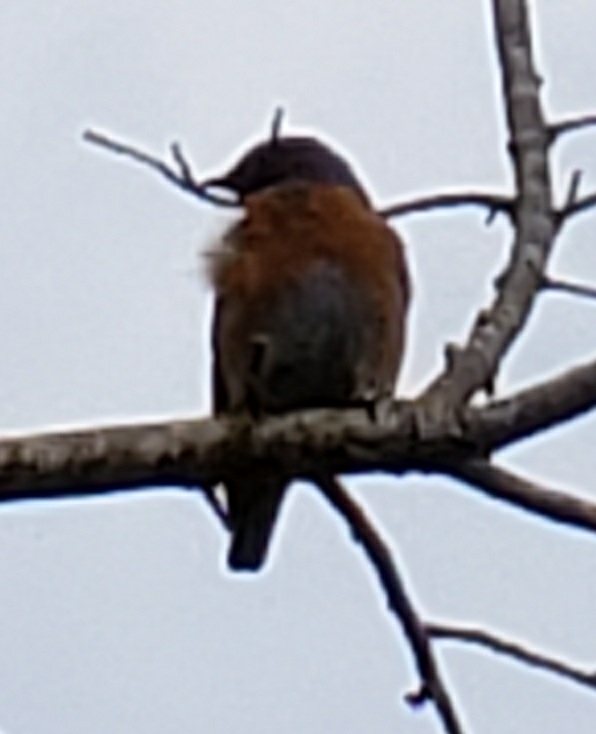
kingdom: Animalia
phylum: Chordata
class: Aves
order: Passeriformes
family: Turdidae
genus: Sialia
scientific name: Sialia mexicana
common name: Western bluebird
